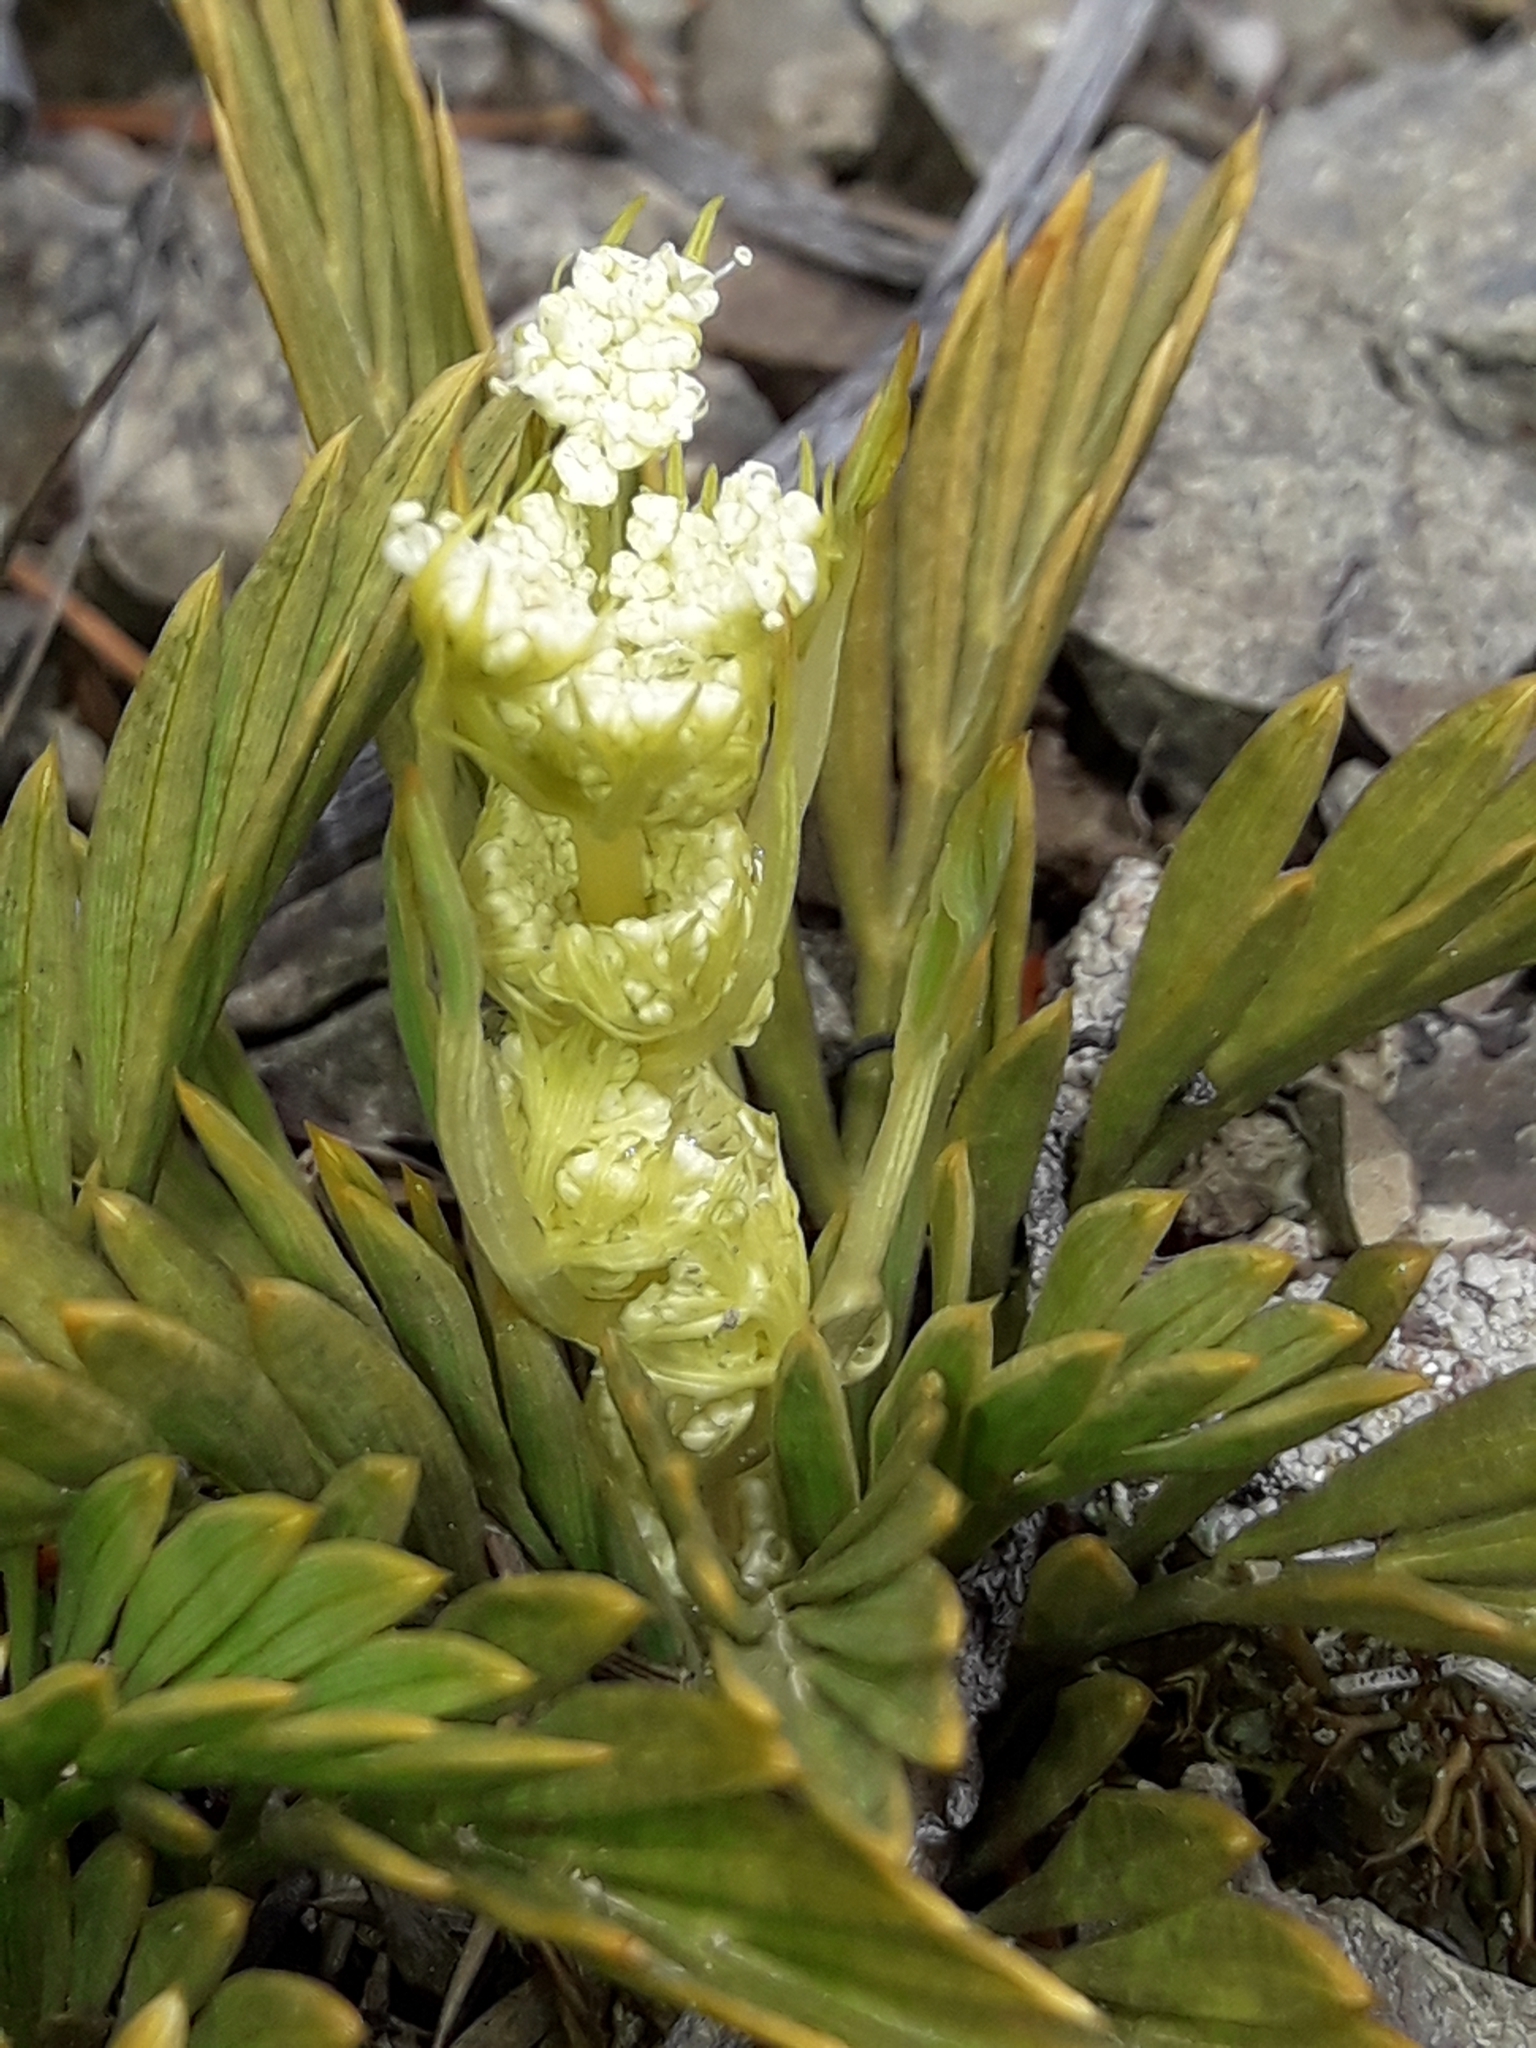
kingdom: Plantae
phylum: Tracheophyta
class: Magnoliopsida
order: Apiales
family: Apiaceae
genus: Aciphylla
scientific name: Aciphylla monroi
